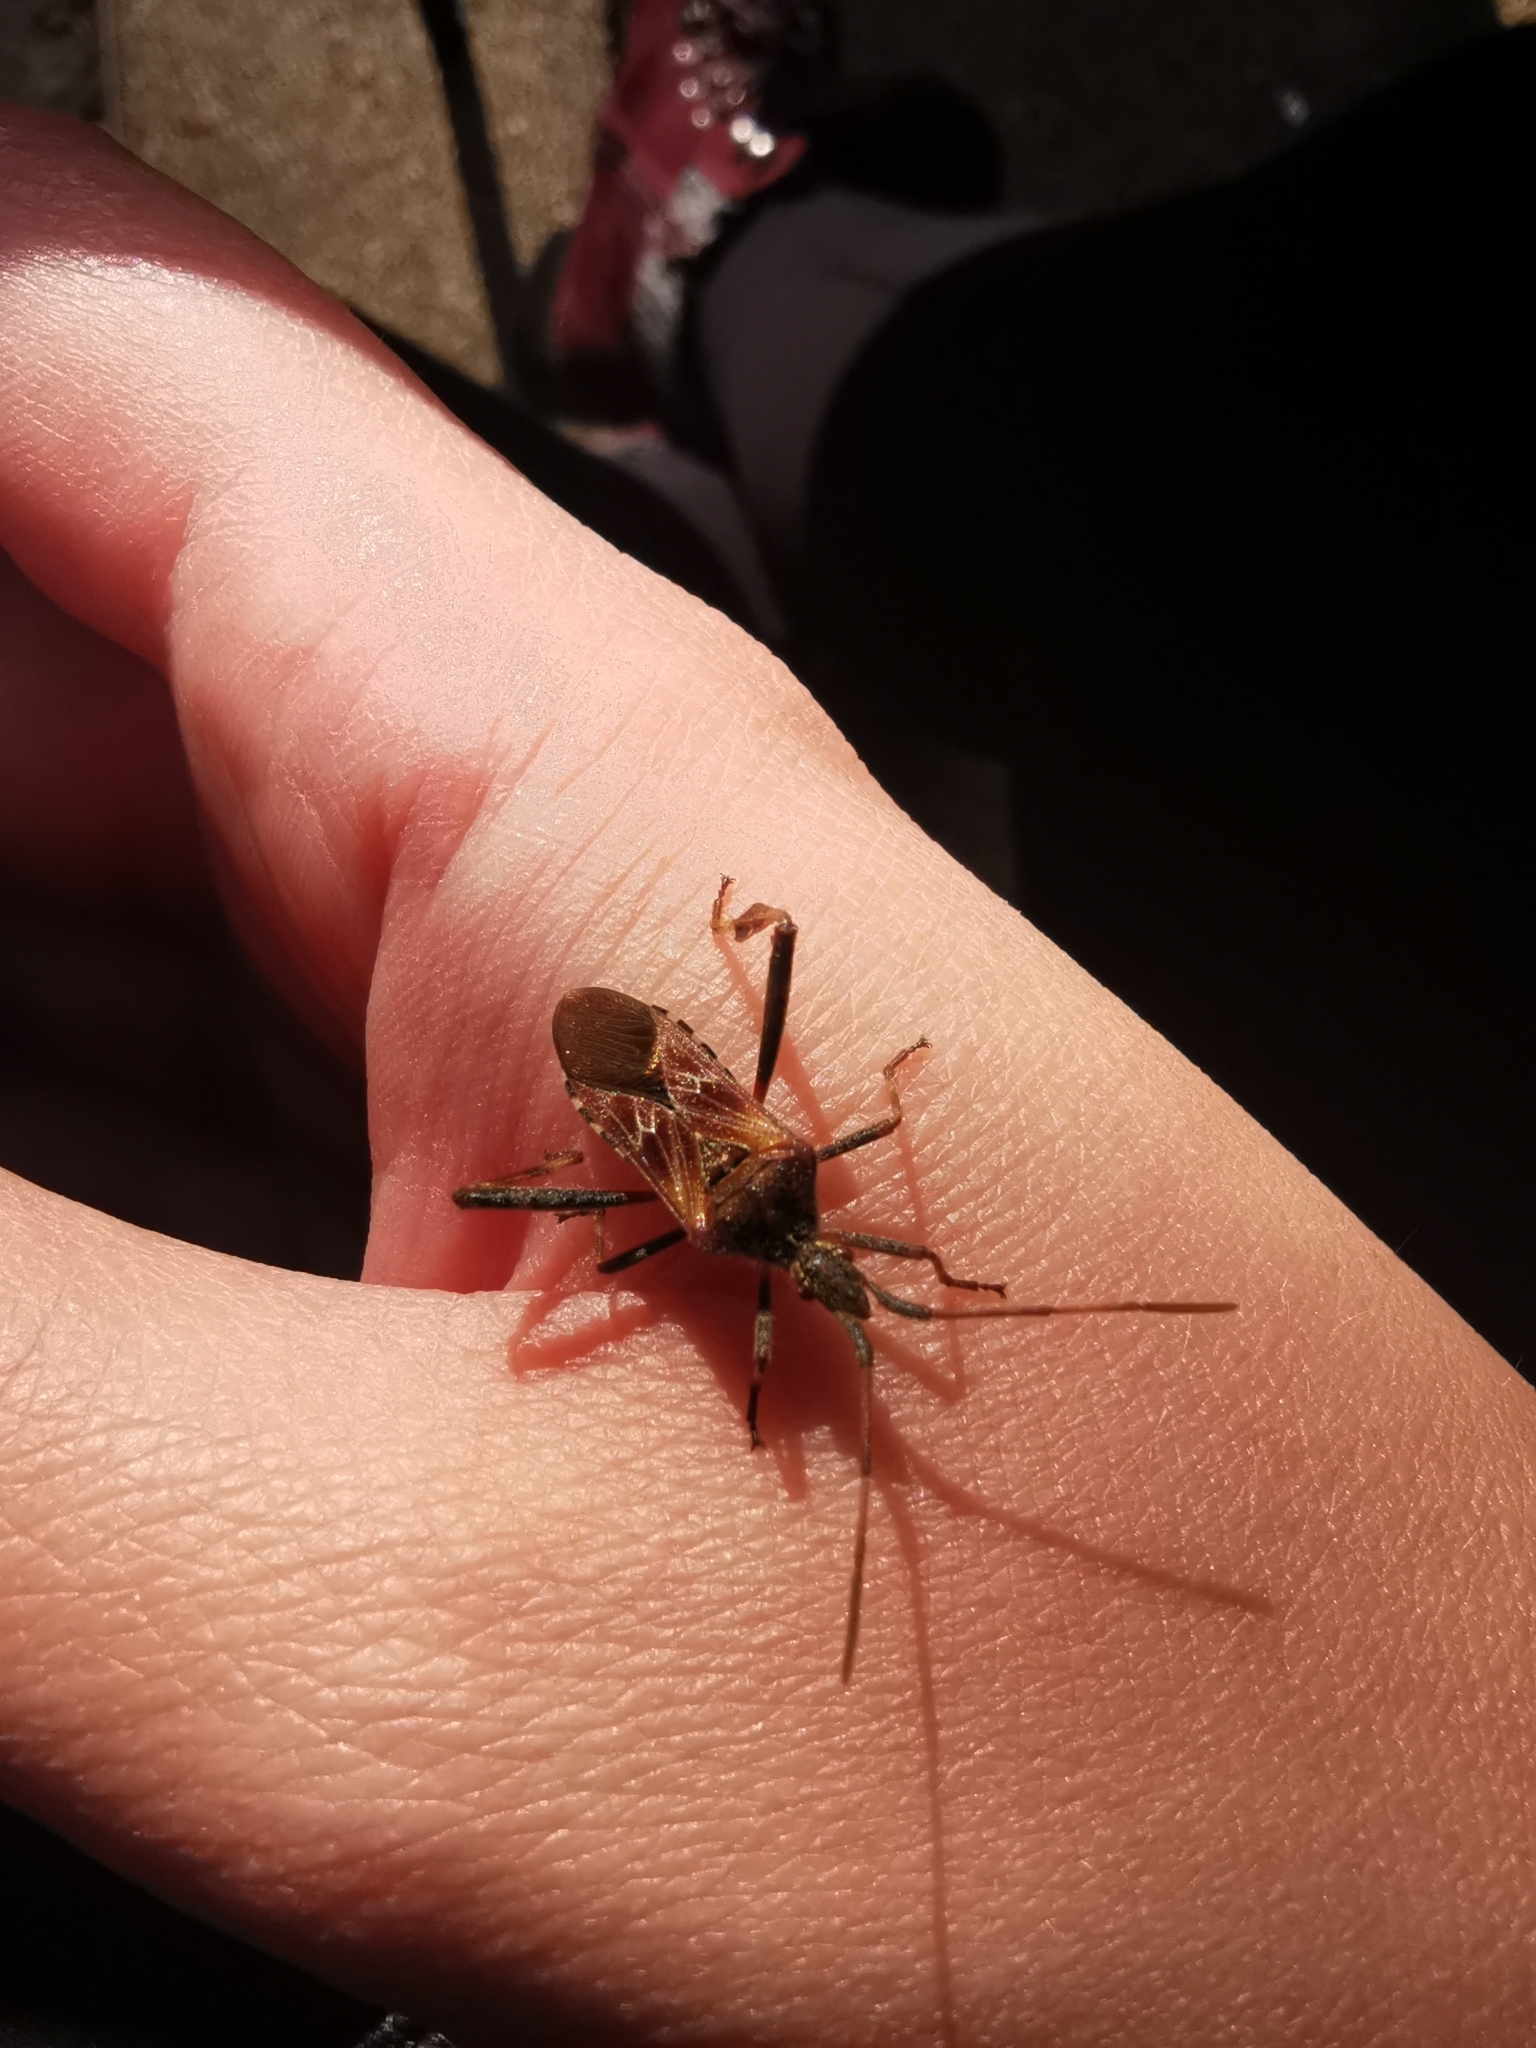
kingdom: Animalia
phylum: Arthropoda
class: Insecta
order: Hemiptera
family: Coreidae
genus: Leptoglossus
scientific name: Leptoglossus occidentalis
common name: Western conifer-seed bug
